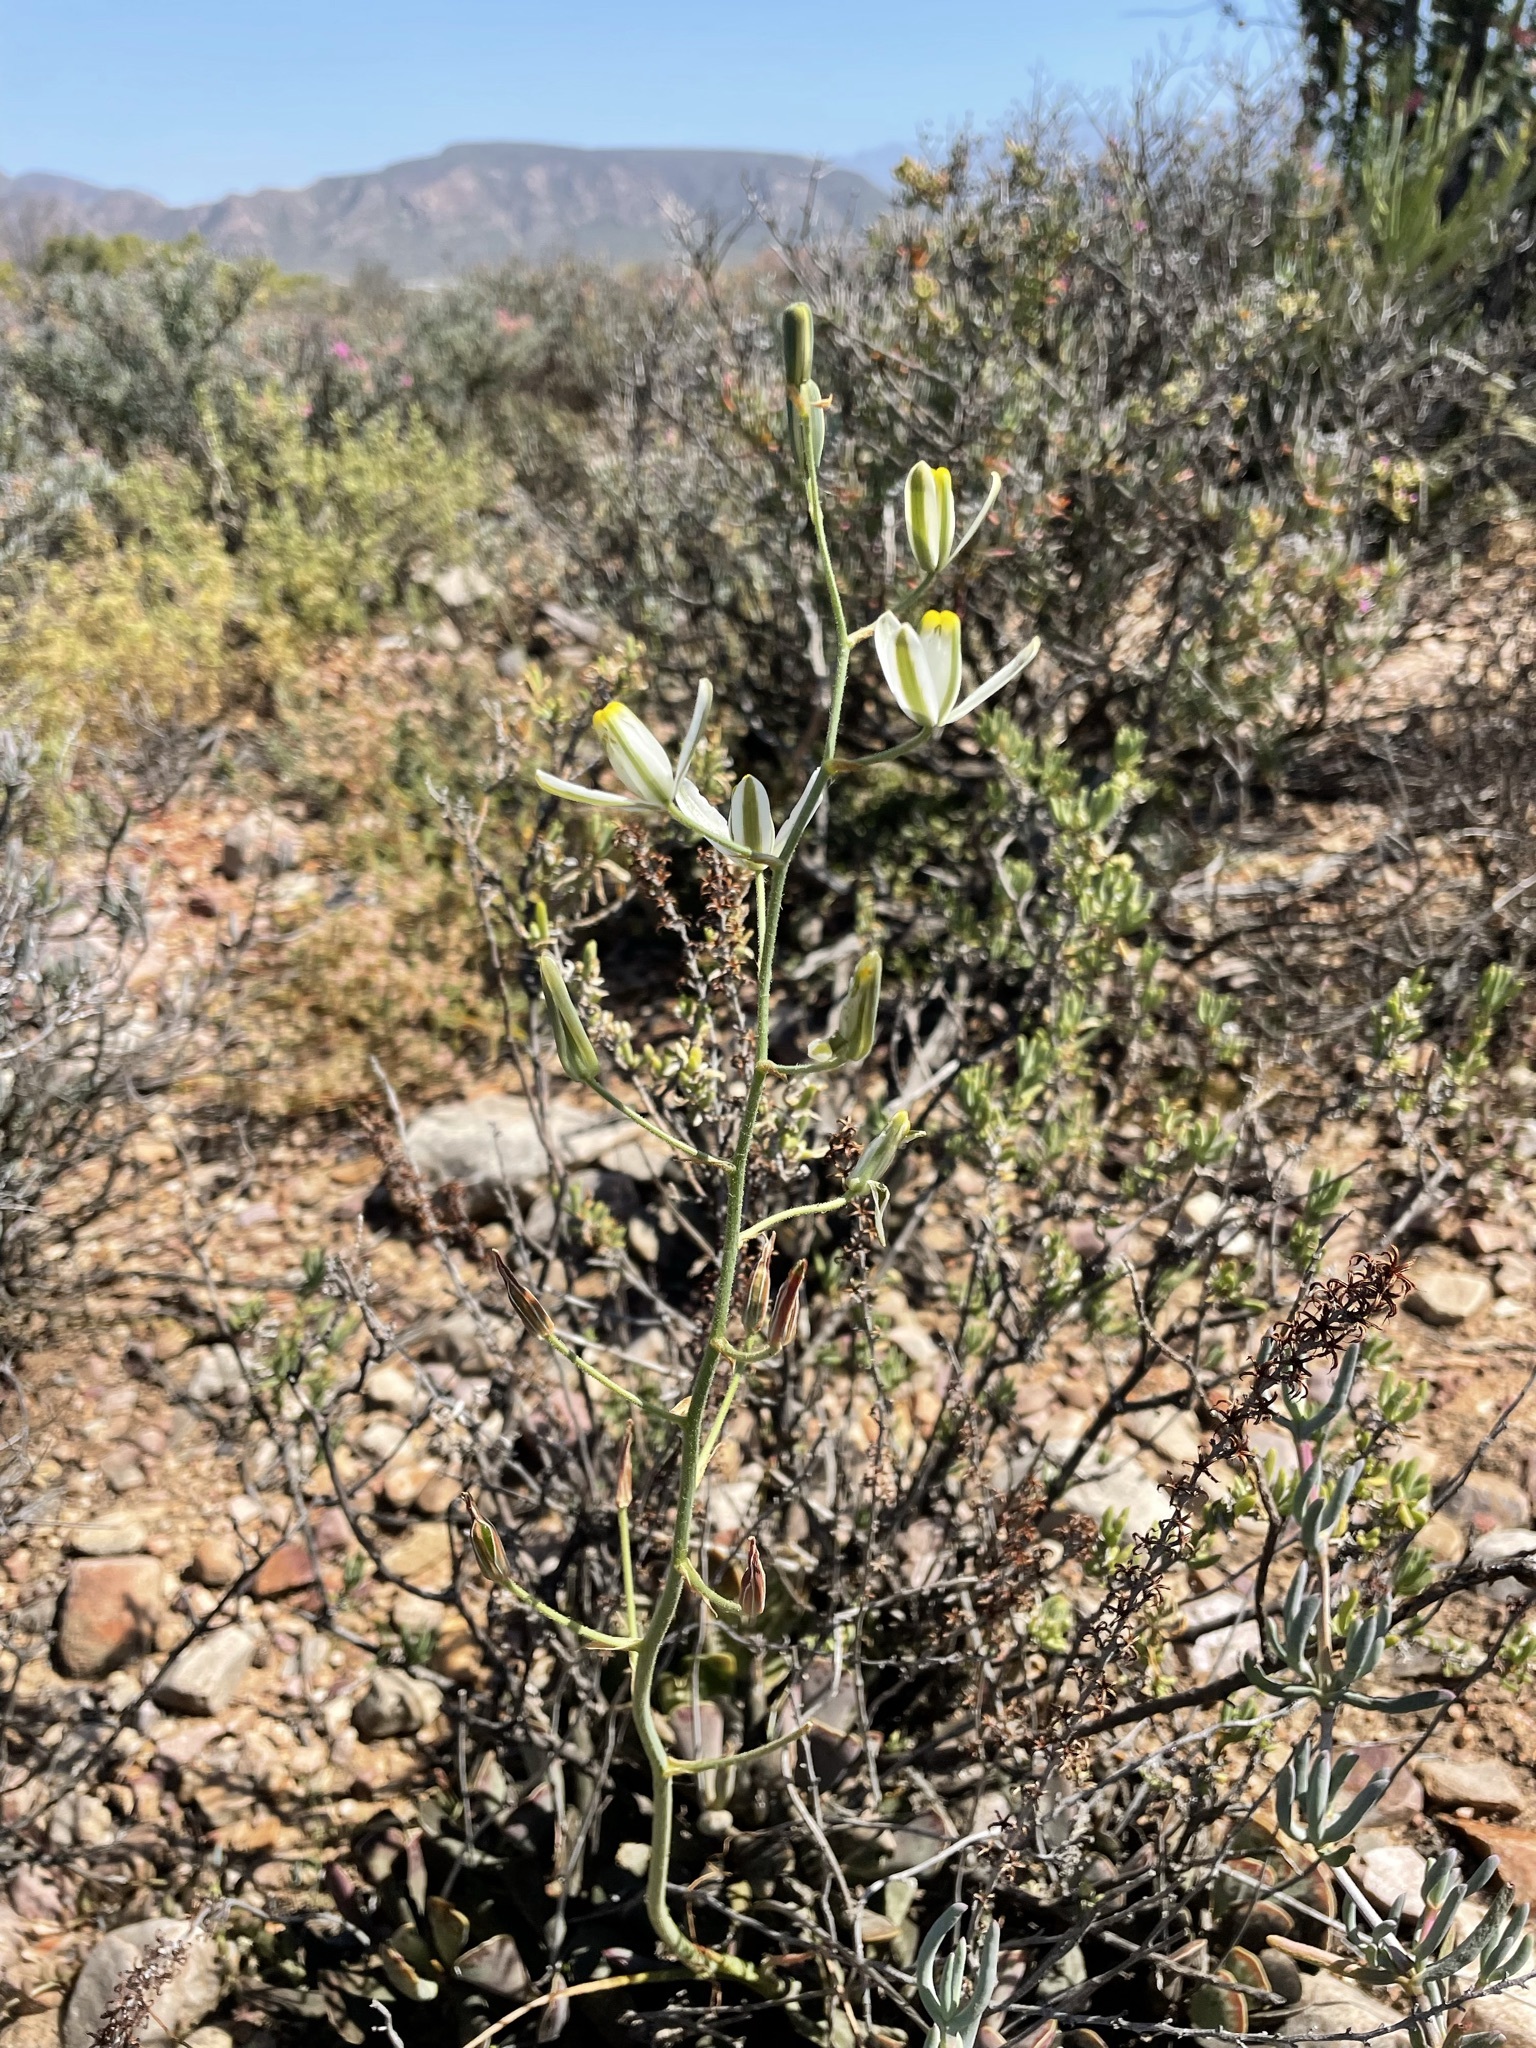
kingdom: Plantae
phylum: Tracheophyta
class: Liliopsida
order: Asparagales
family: Asparagaceae
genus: Albuca
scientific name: Albuca longipes
